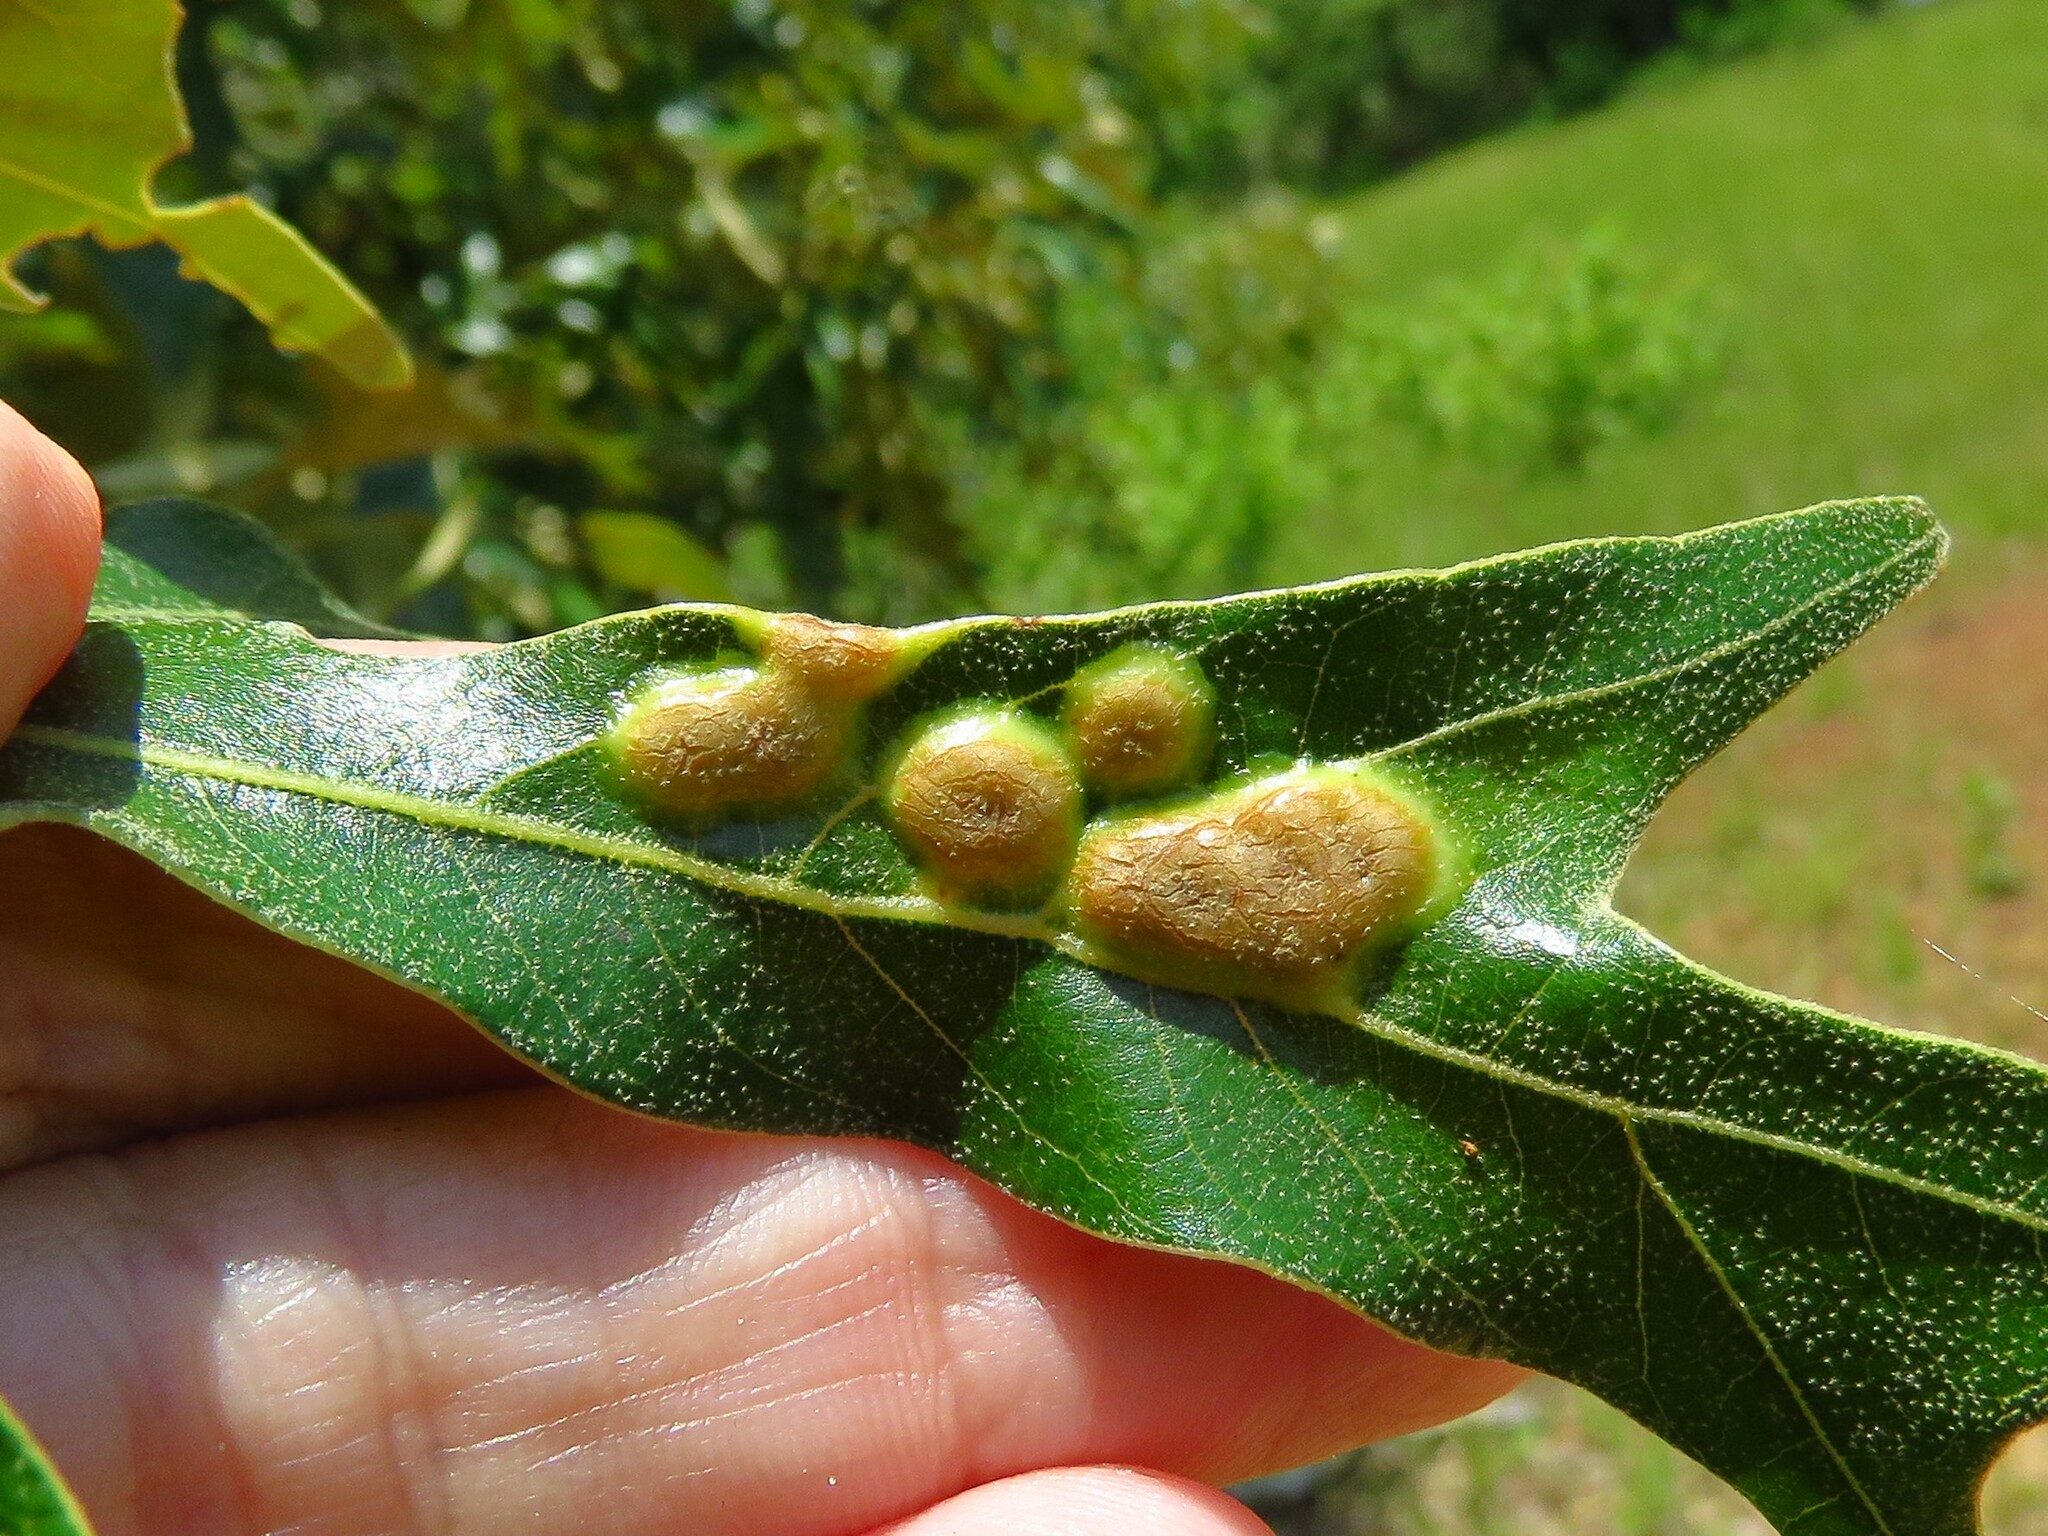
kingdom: Animalia
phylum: Arthropoda
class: Insecta
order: Diptera
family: Cecidomyiidae
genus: Polystepha
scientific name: Polystepha symmetrica
